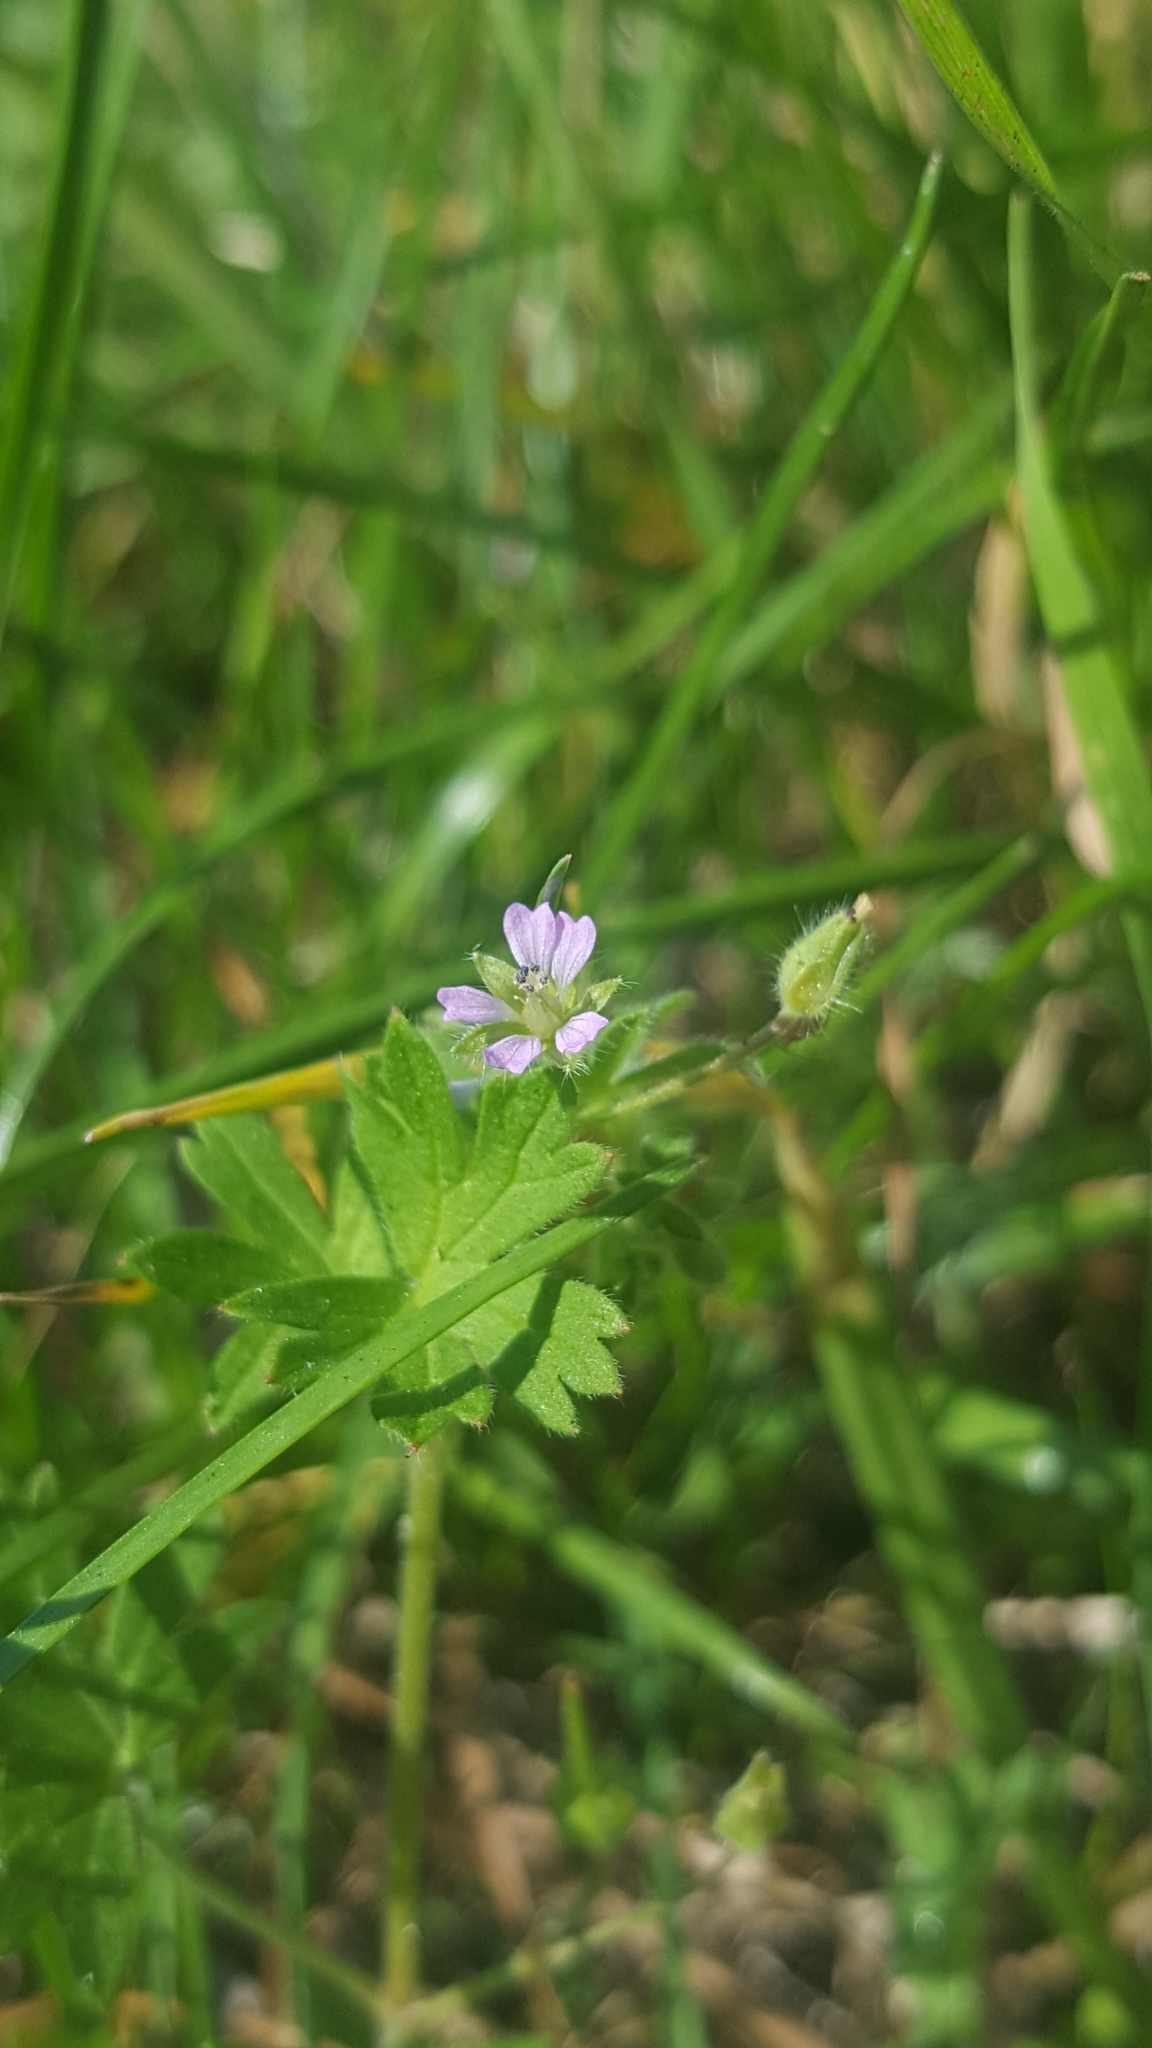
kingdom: Plantae
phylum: Tracheophyta
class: Magnoliopsida
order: Geraniales
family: Geraniaceae
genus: Geranium
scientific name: Geranium pusillum
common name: Small geranium
